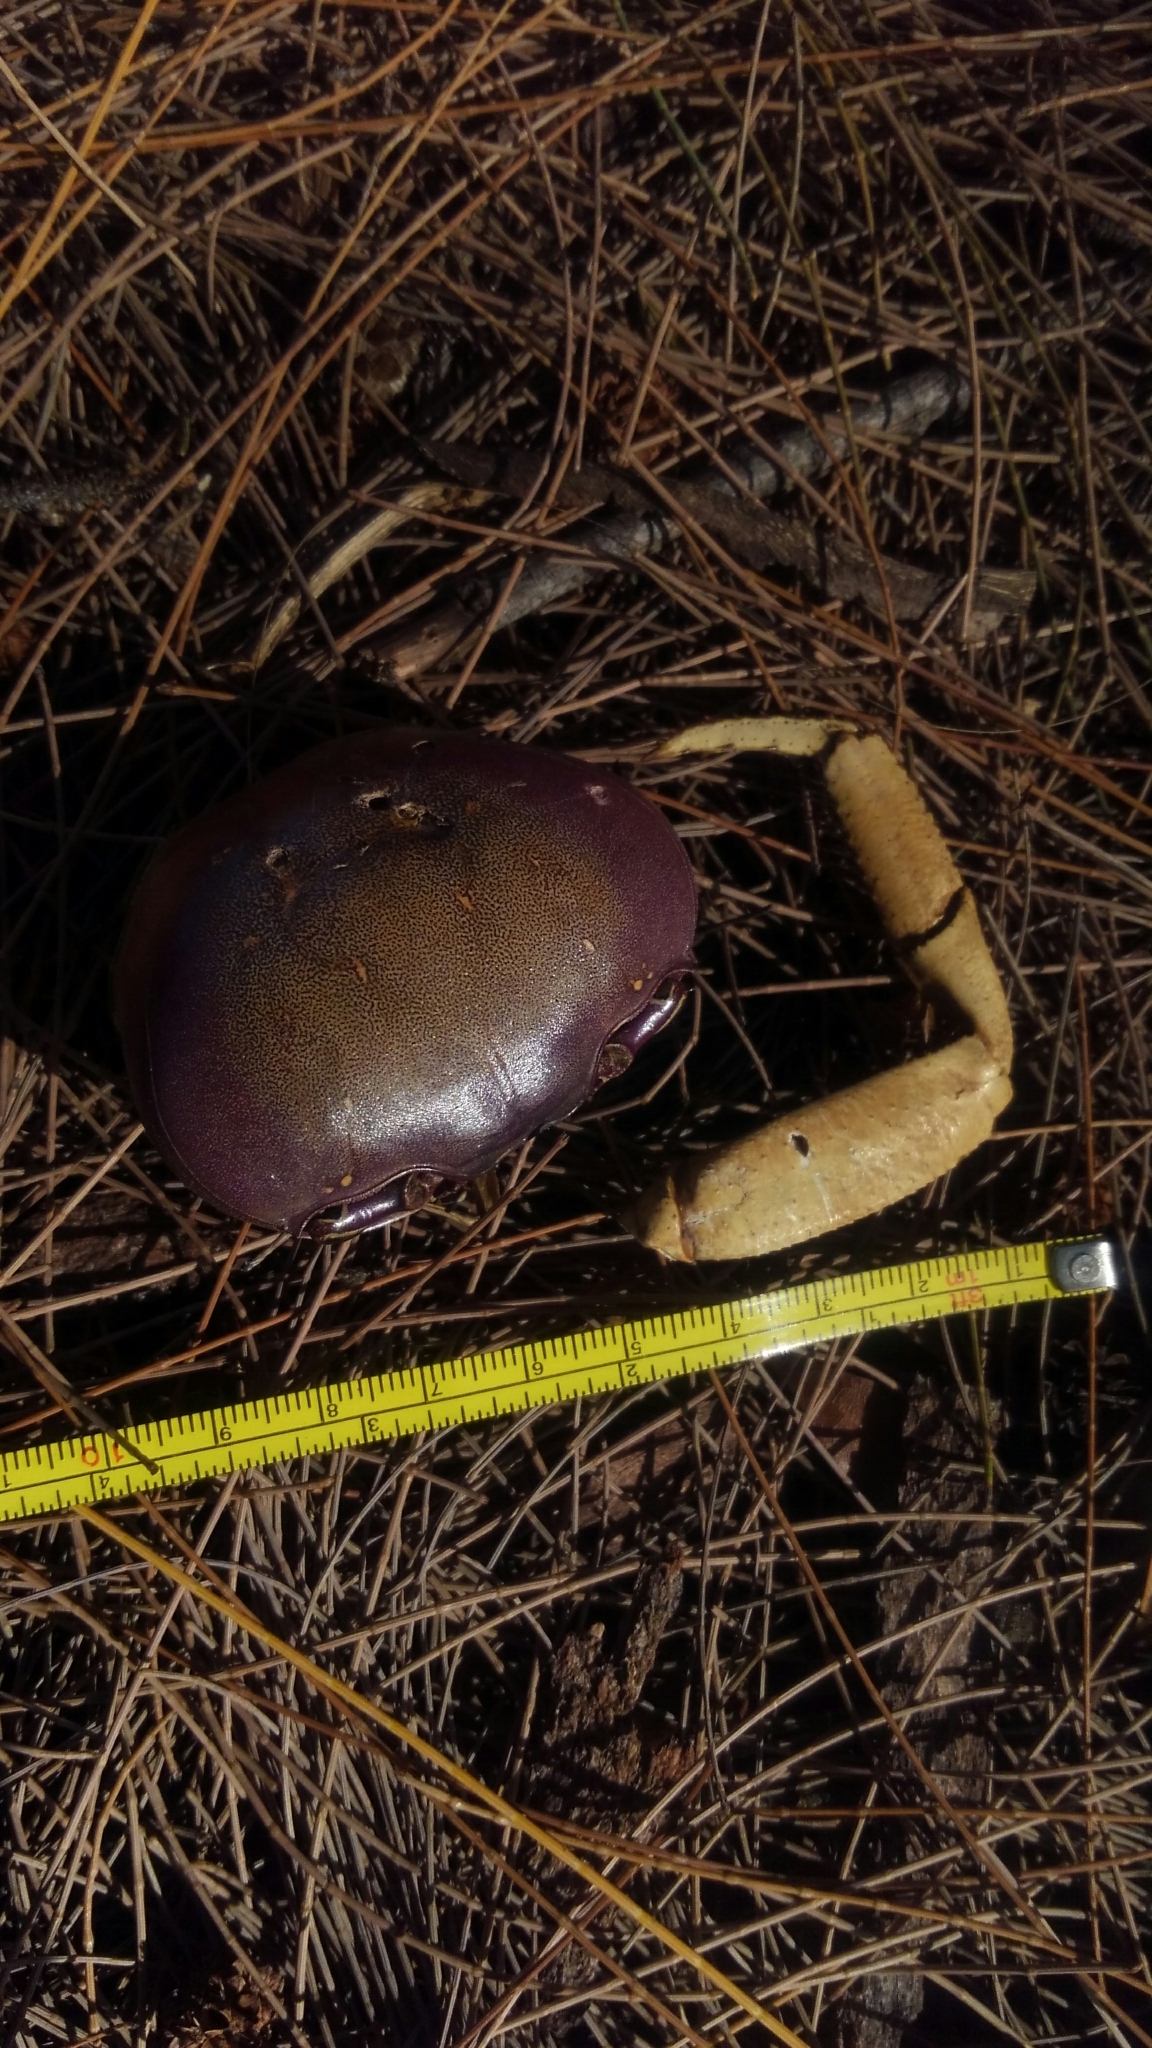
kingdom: Animalia
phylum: Arthropoda
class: Malacostraca
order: Decapoda
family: Gecarcinidae
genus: Cardisoma
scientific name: Cardisoma guanhumi
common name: Great land crab
